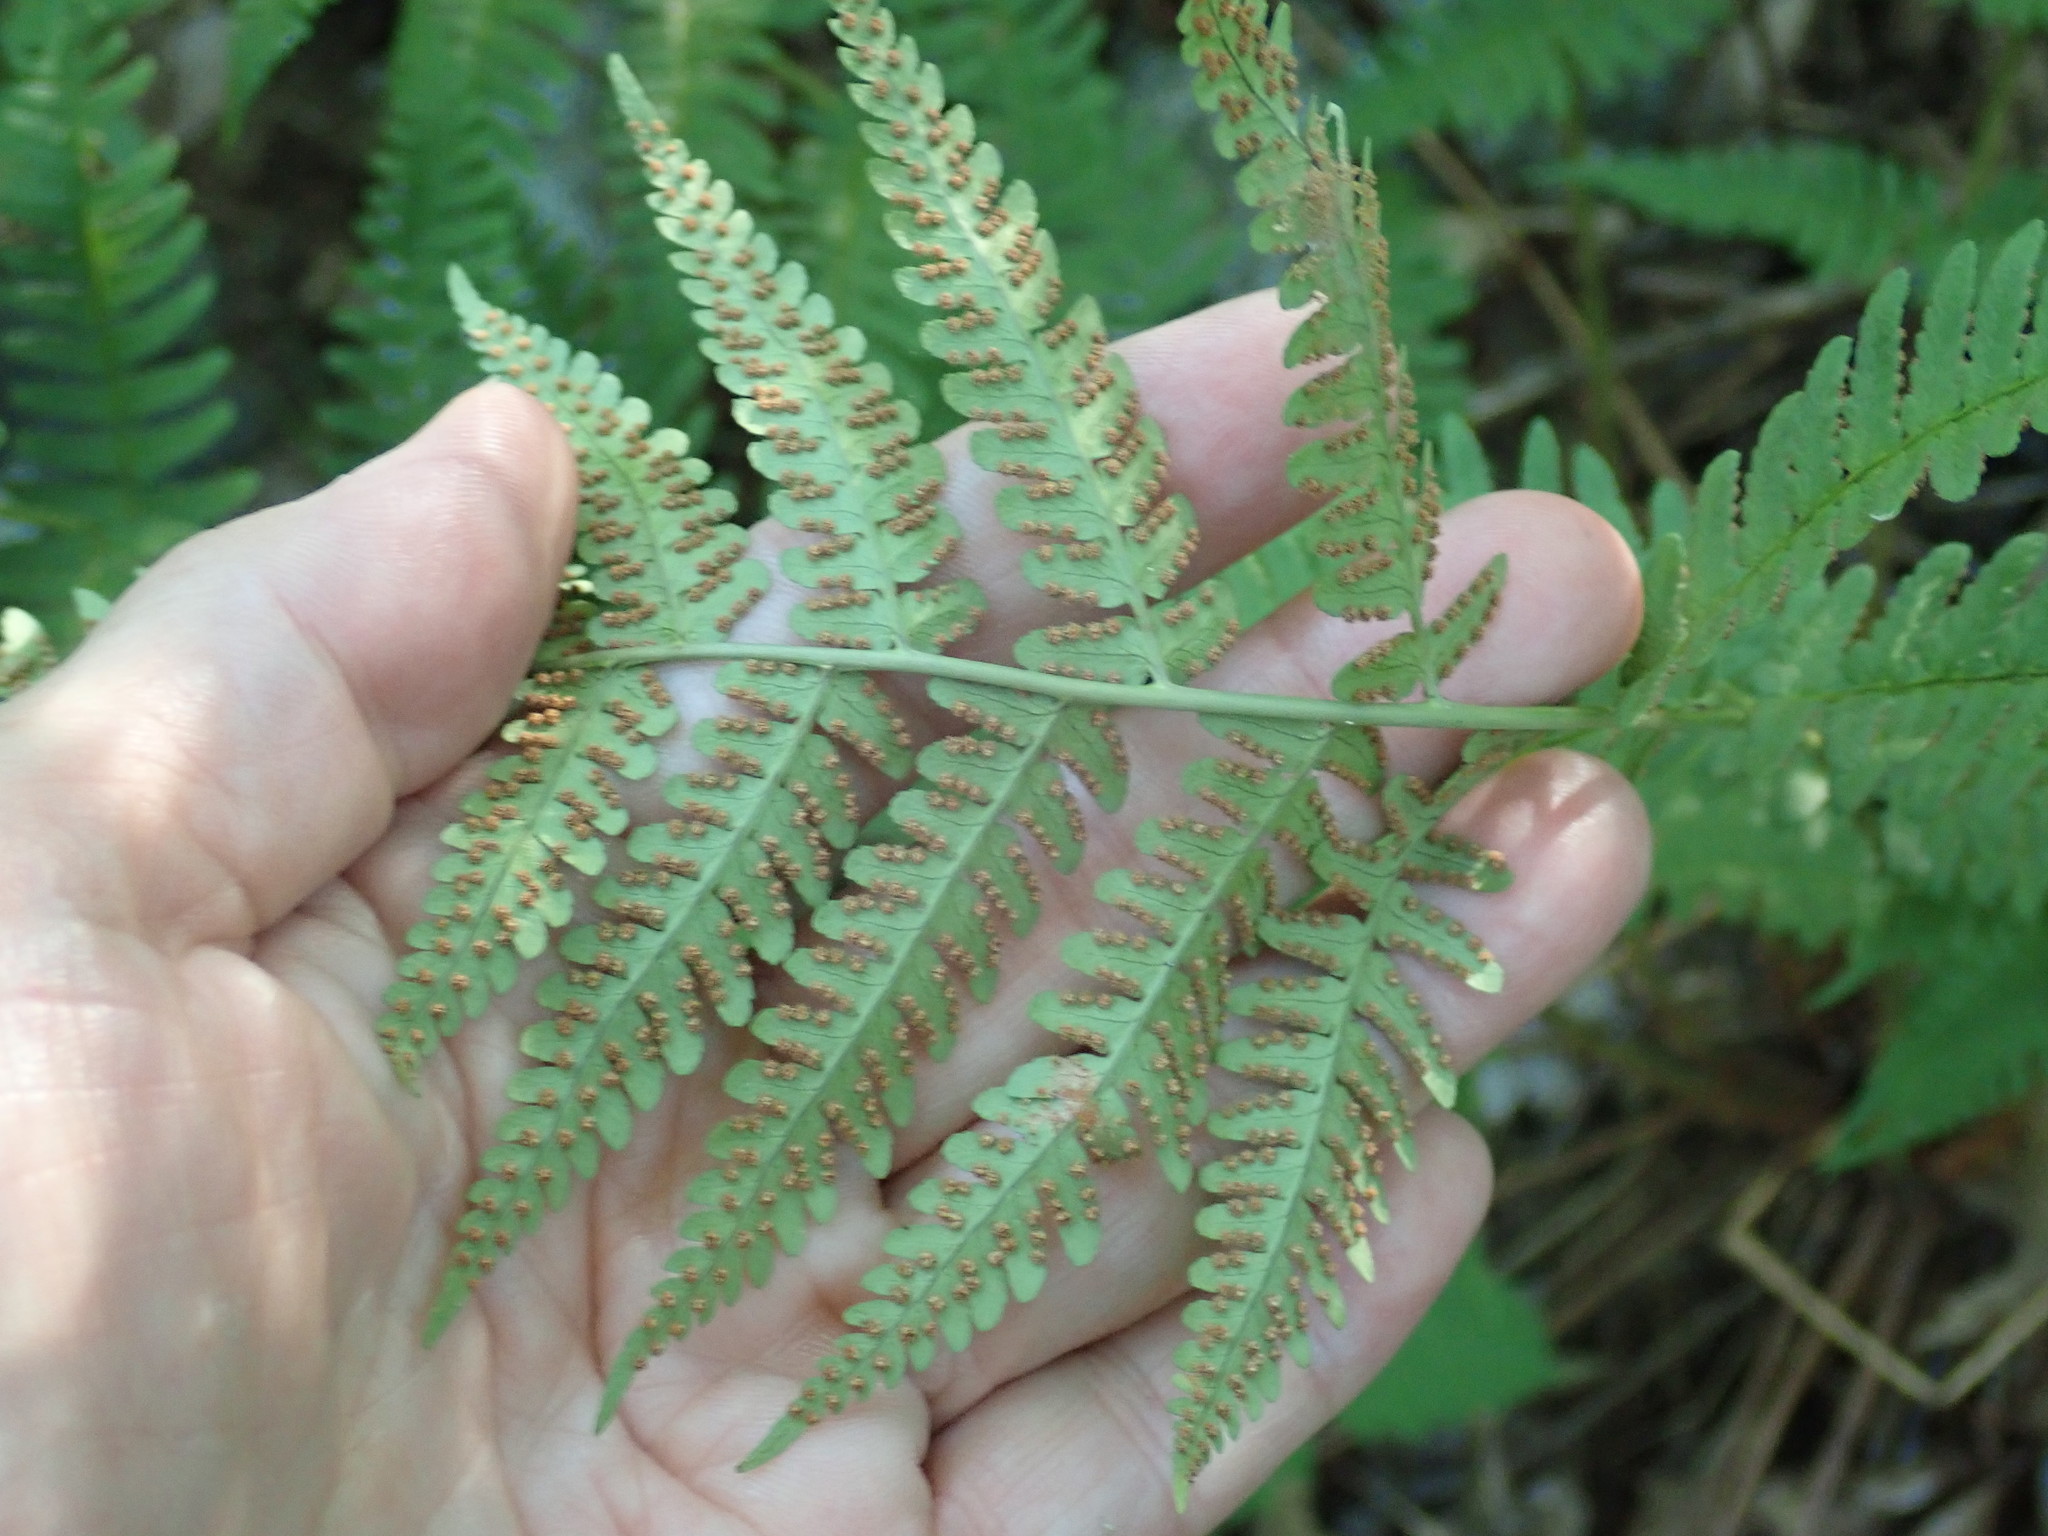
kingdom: Plantae
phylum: Tracheophyta
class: Polypodiopsida
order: Polypodiales
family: Dryopteridaceae
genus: Dryopteris
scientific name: Dryopteris marginalis
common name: Marginal wood fern
